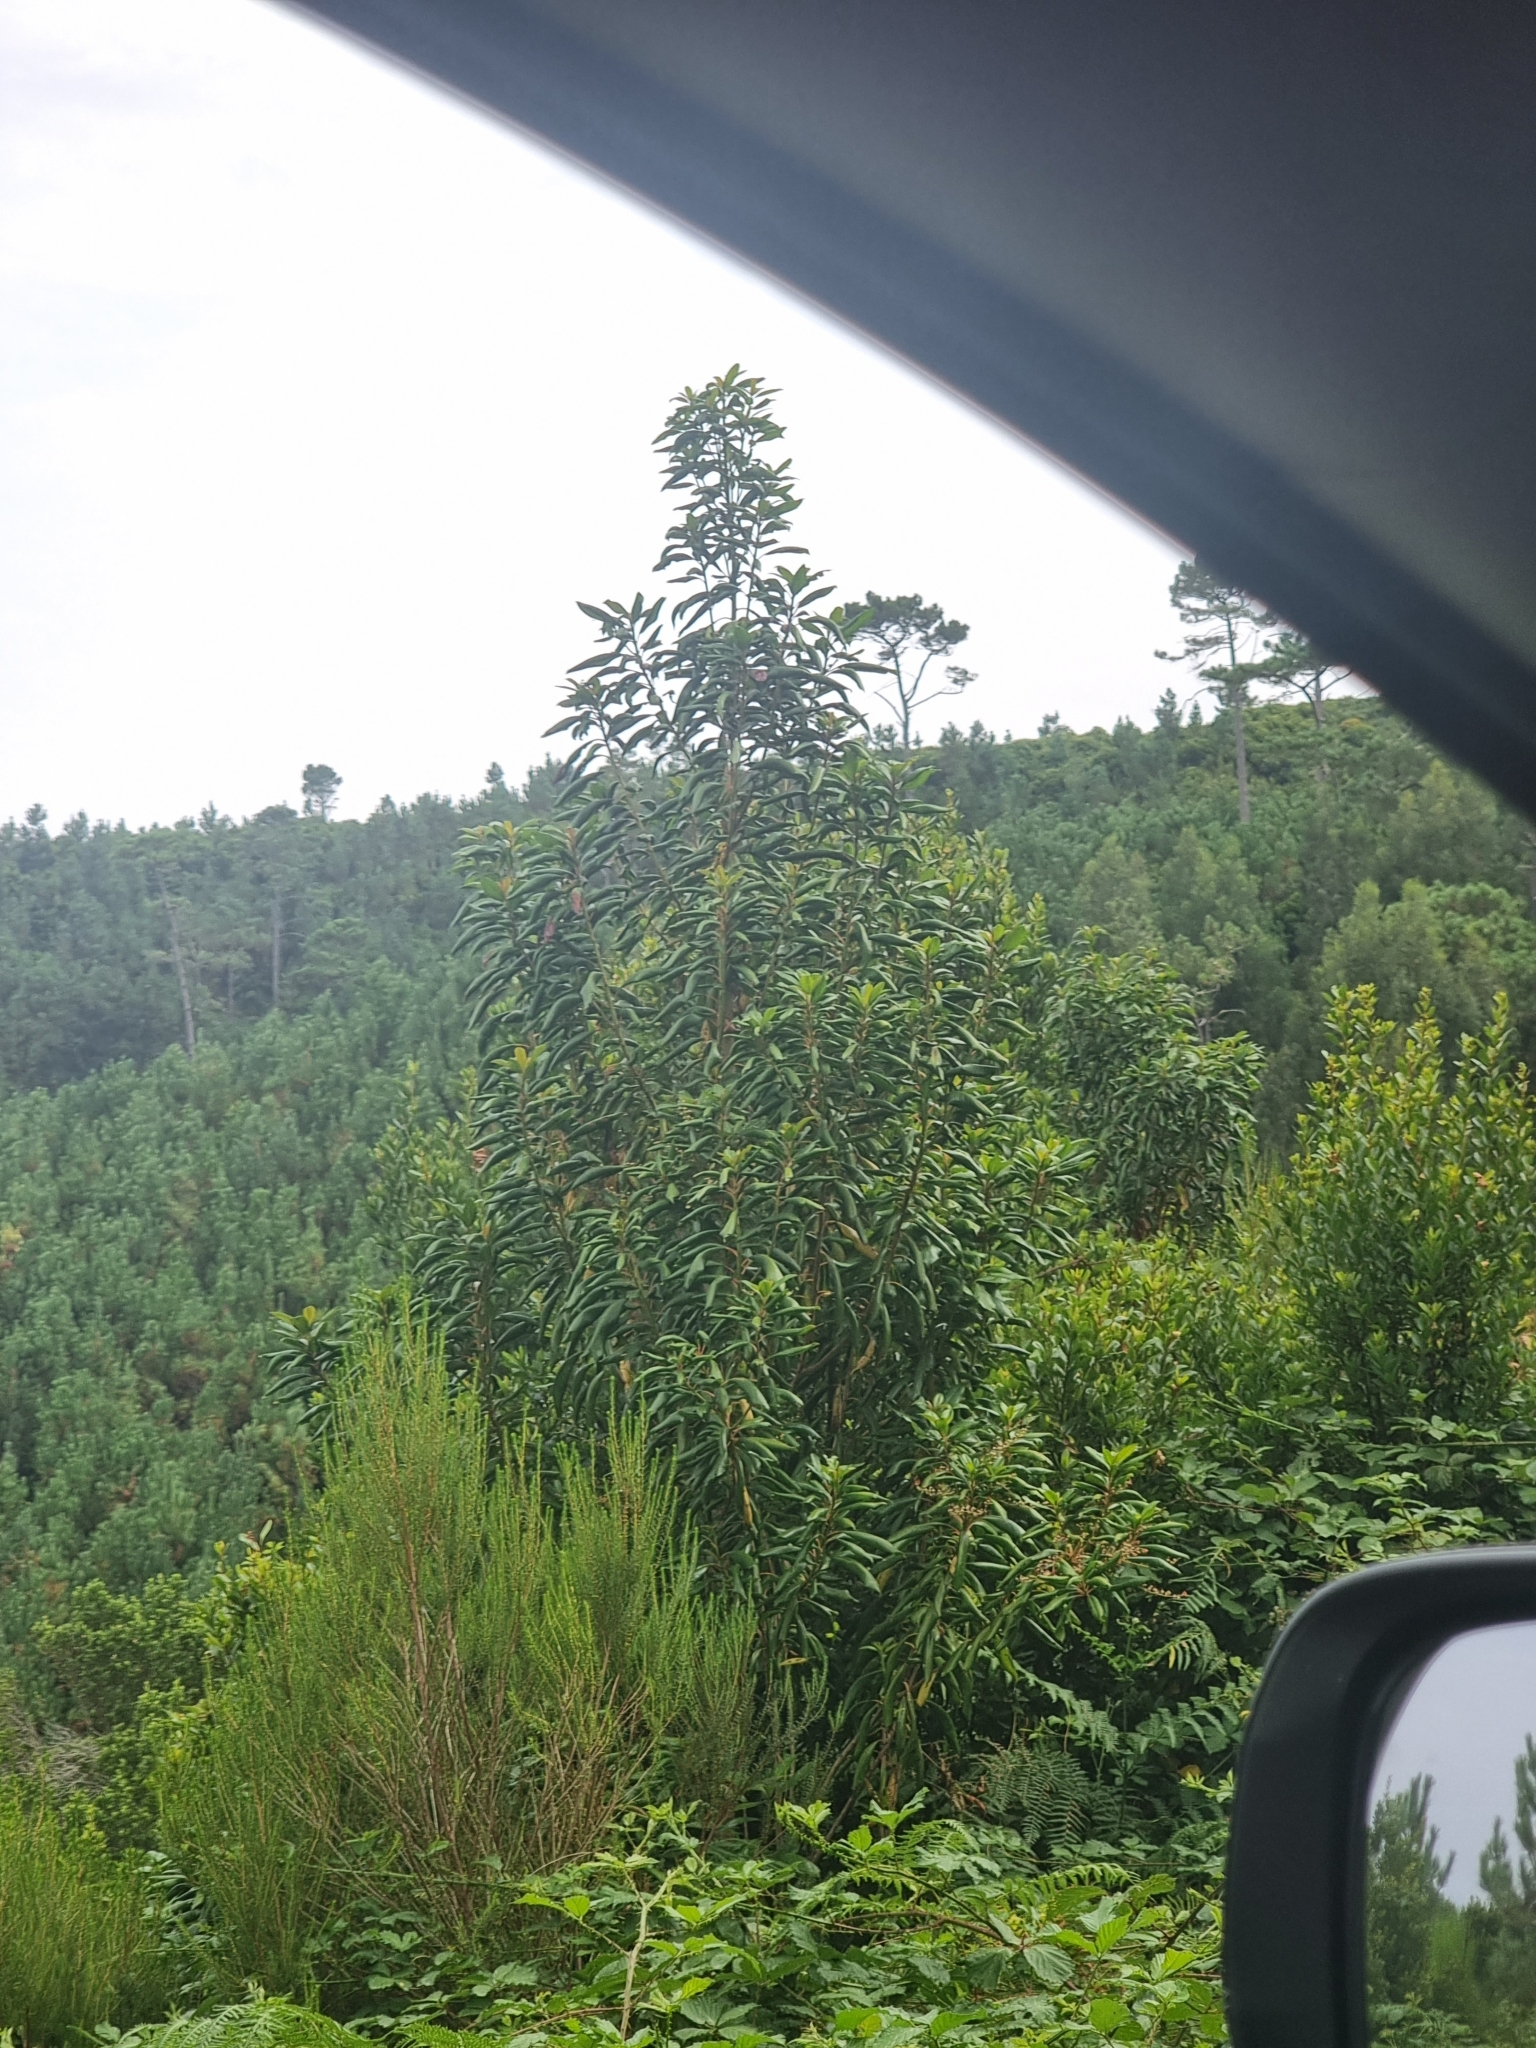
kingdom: Plantae
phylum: Tracheophyta
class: Magnoliopsida
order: Ericales
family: Clethraceae
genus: Clethra
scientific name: Clethra arborea
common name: Lily-of-the-valley-tree
